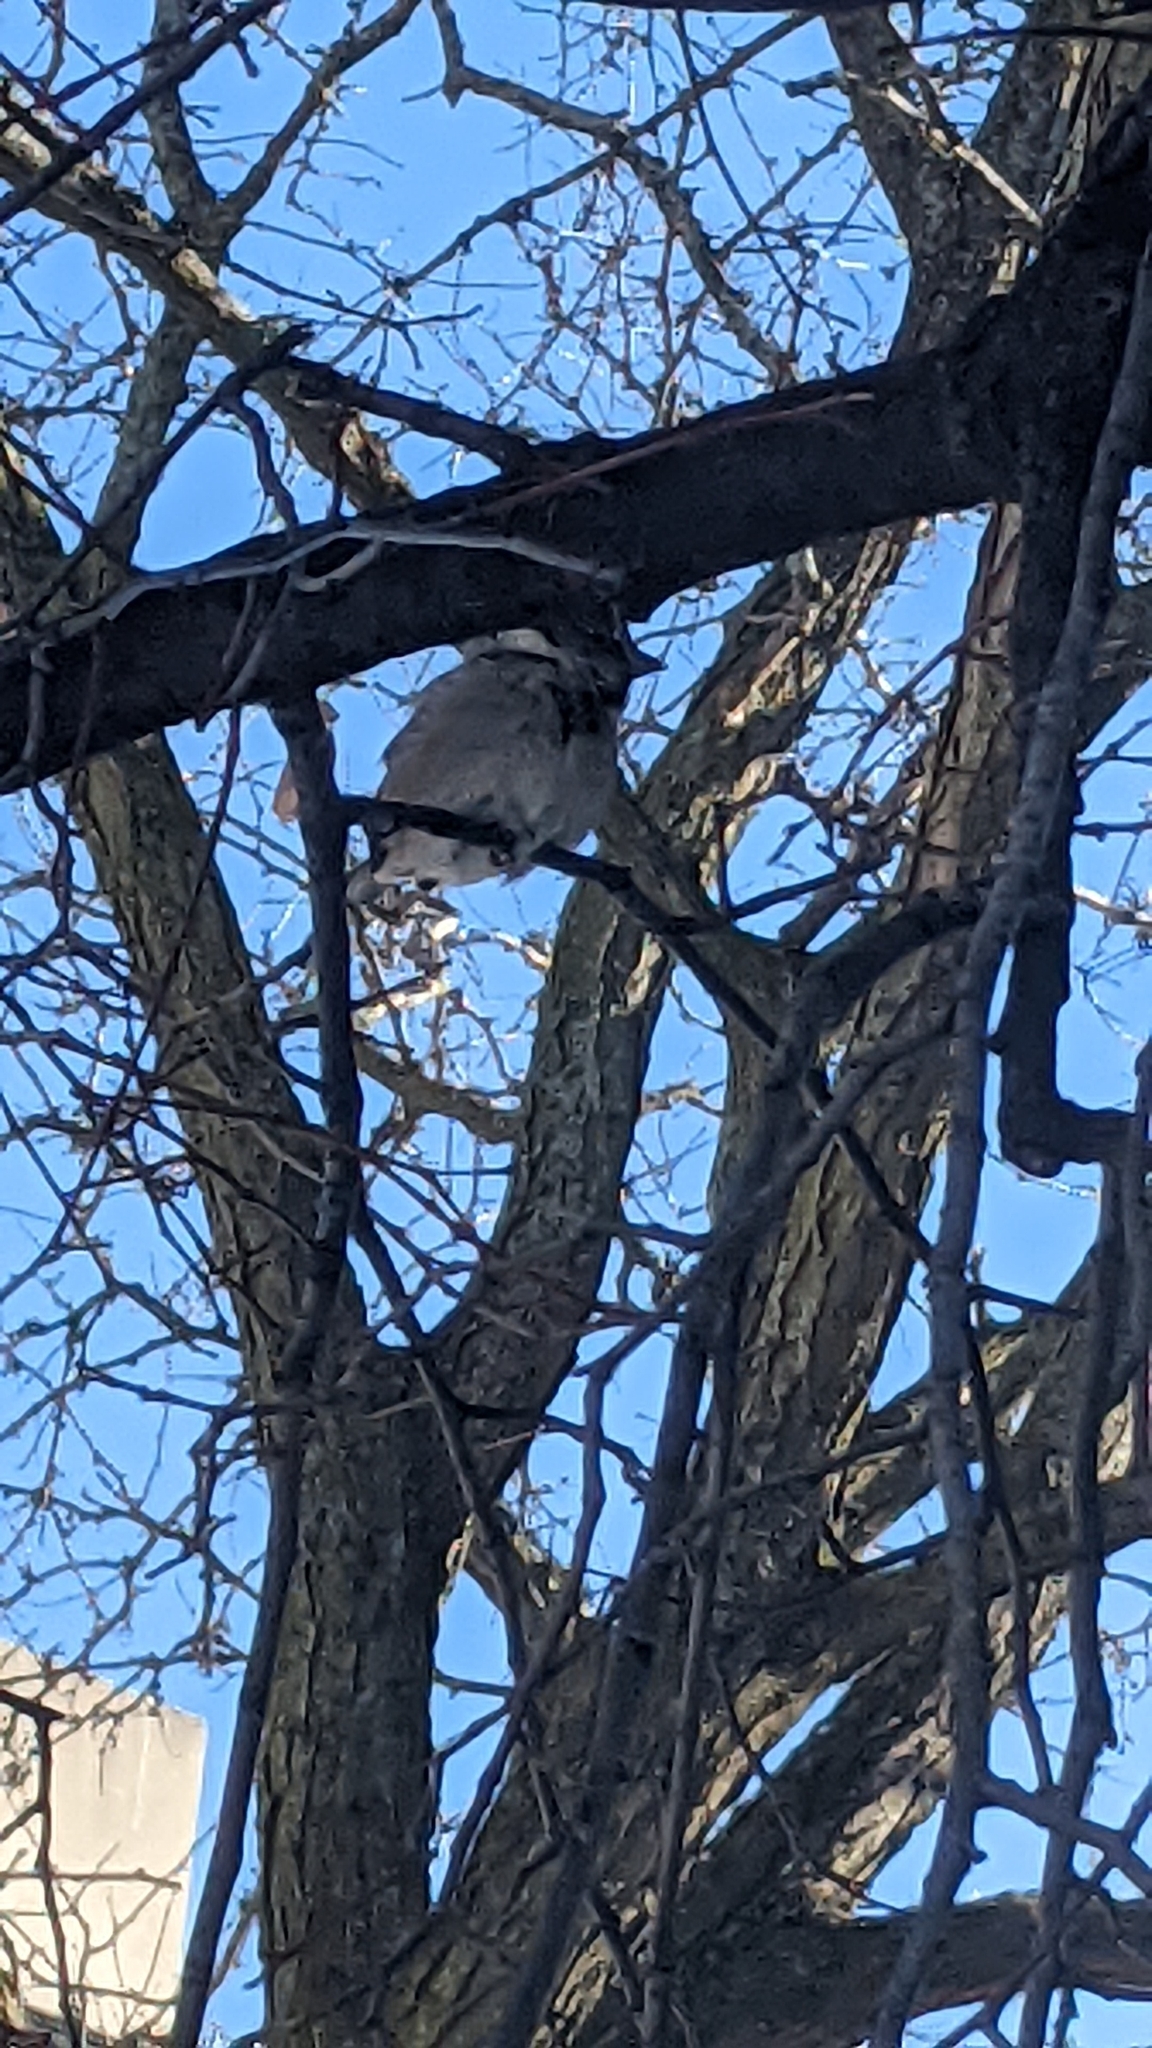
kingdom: Animalia
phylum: Chordata
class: Aves
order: Passeriformes
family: Passeridae
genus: Passer
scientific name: Passer domesticus
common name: House sparrow
